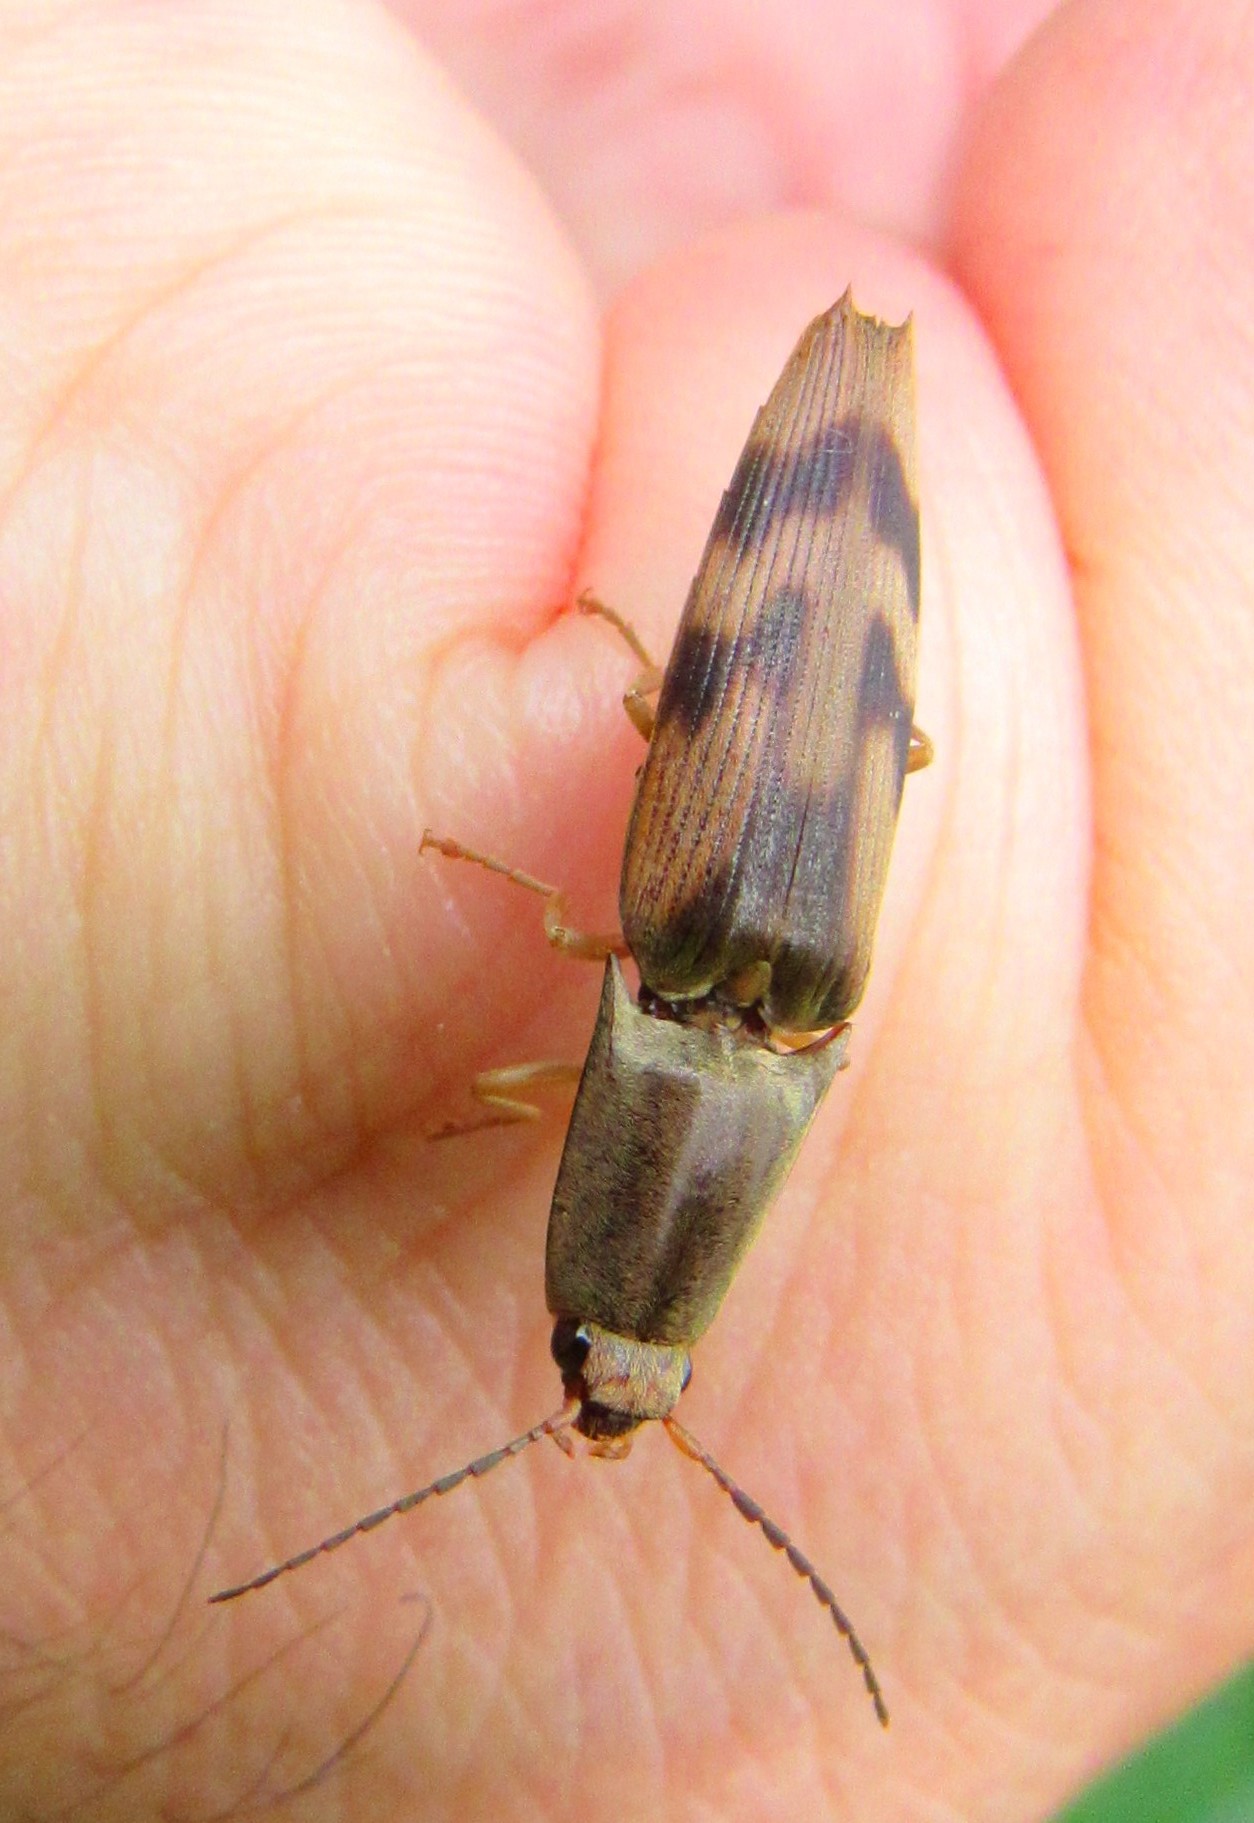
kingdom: Animalia
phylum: Arthropoda
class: Insecta
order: Coleoptera
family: Elateridae
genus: Monocrepidius
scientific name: Monocrepidius
